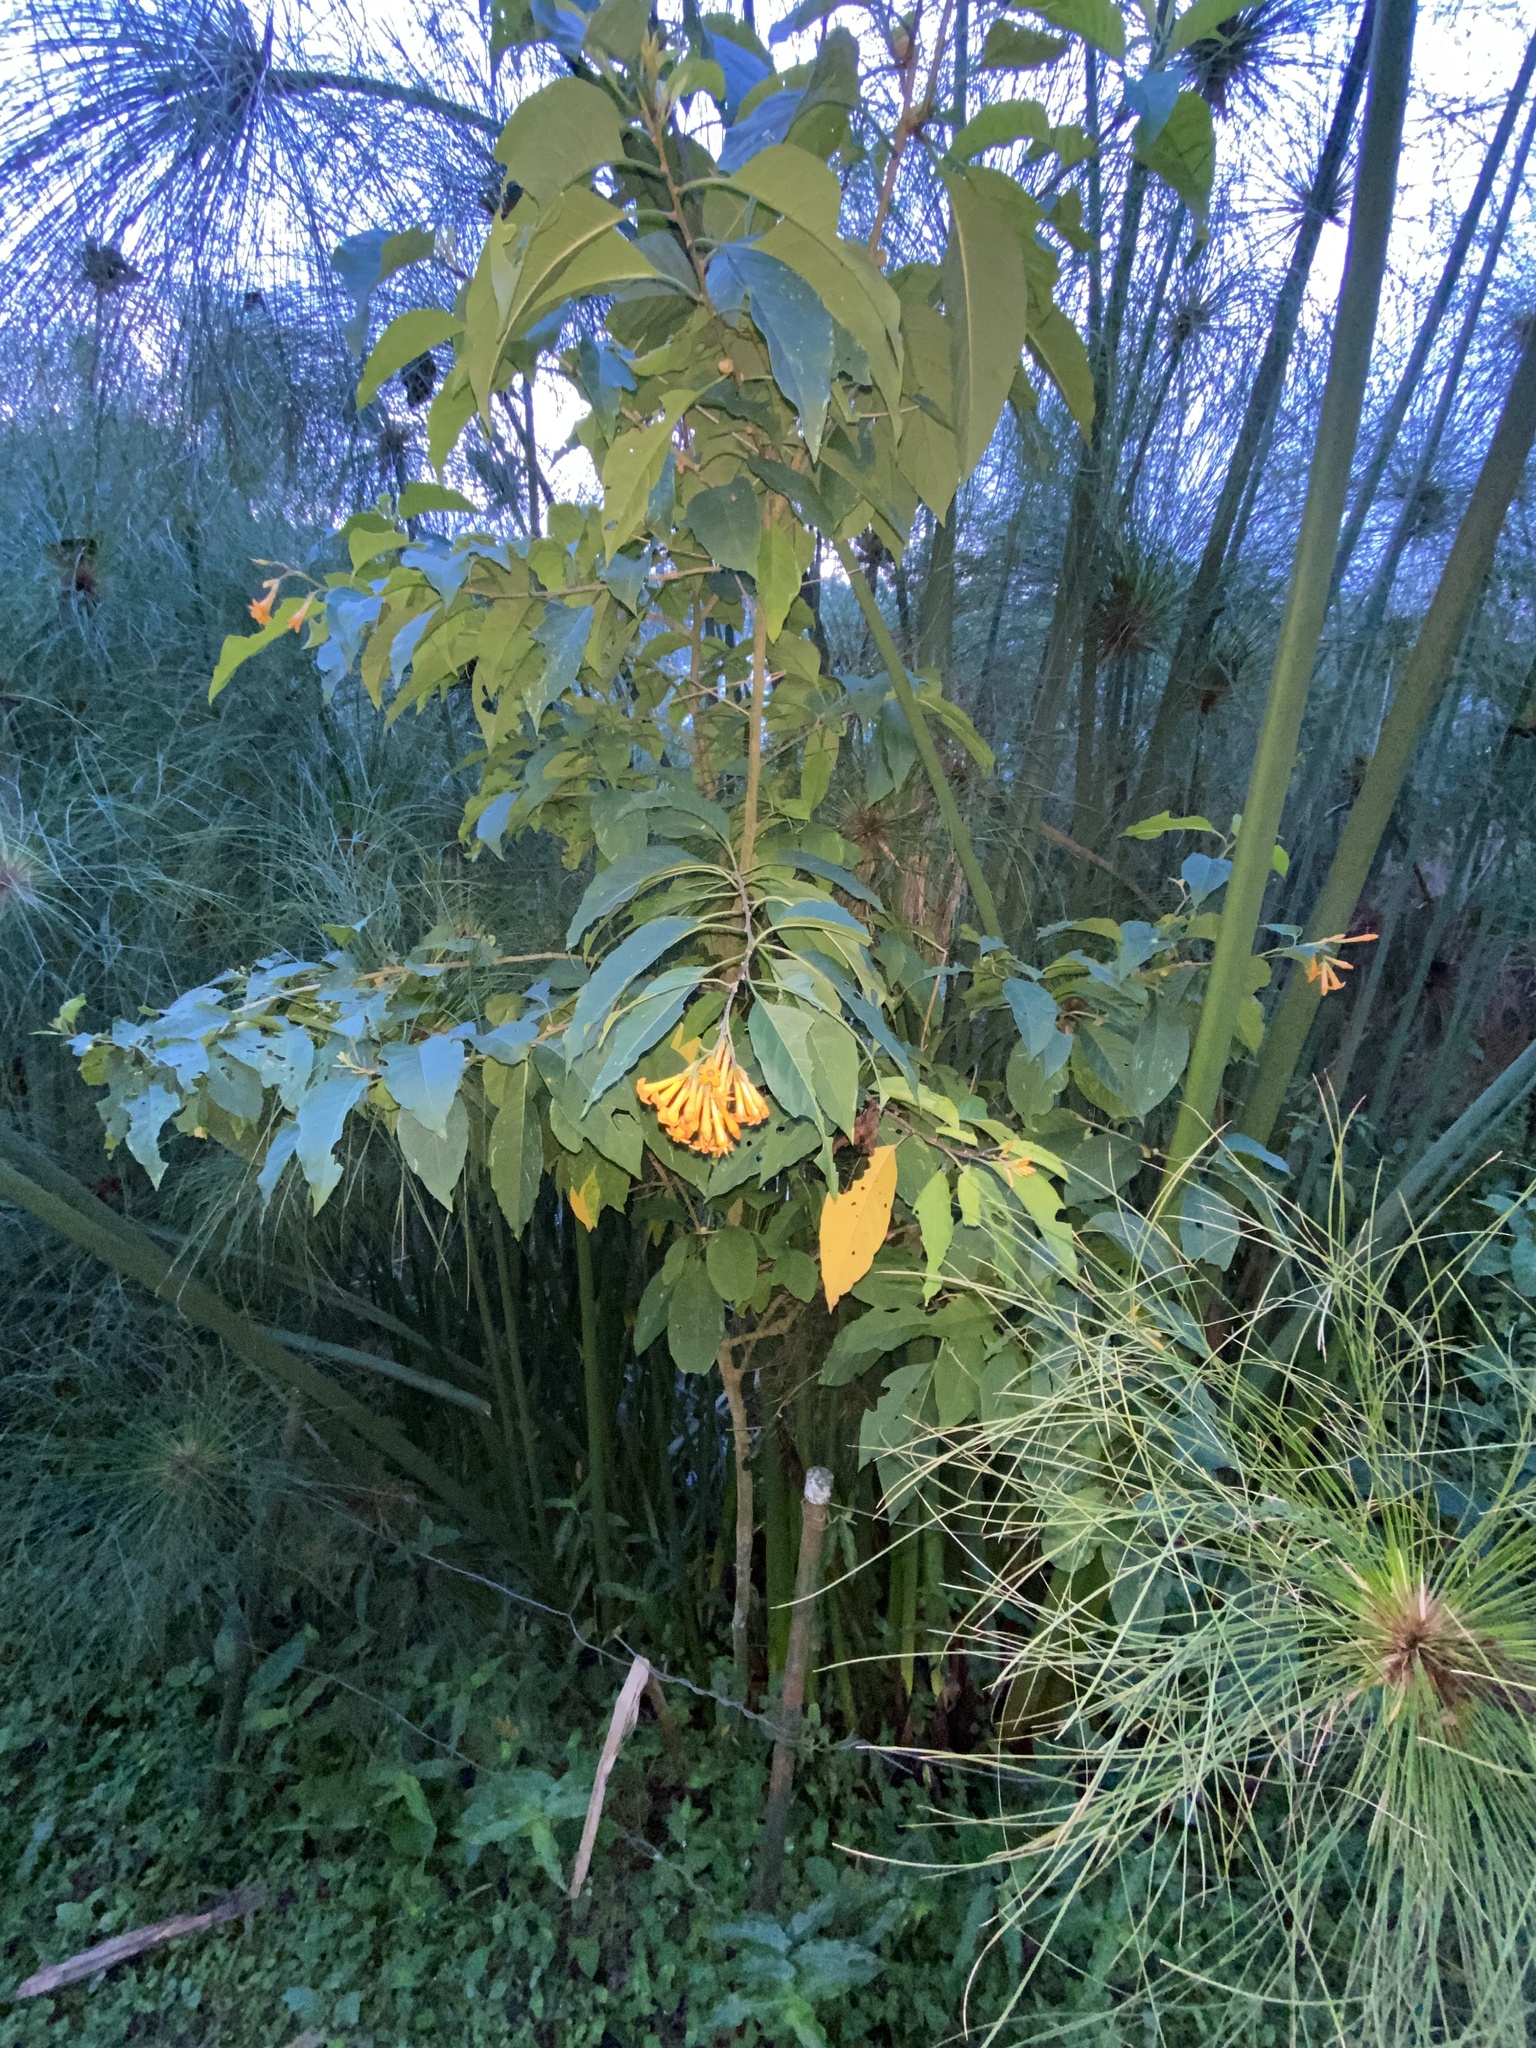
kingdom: Plantae
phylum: Tracheophyta
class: Magnoliopsida
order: Solanales
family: Solanaceae
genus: Cestrum
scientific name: Cestrum aurantiacum
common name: Orange cestrum
